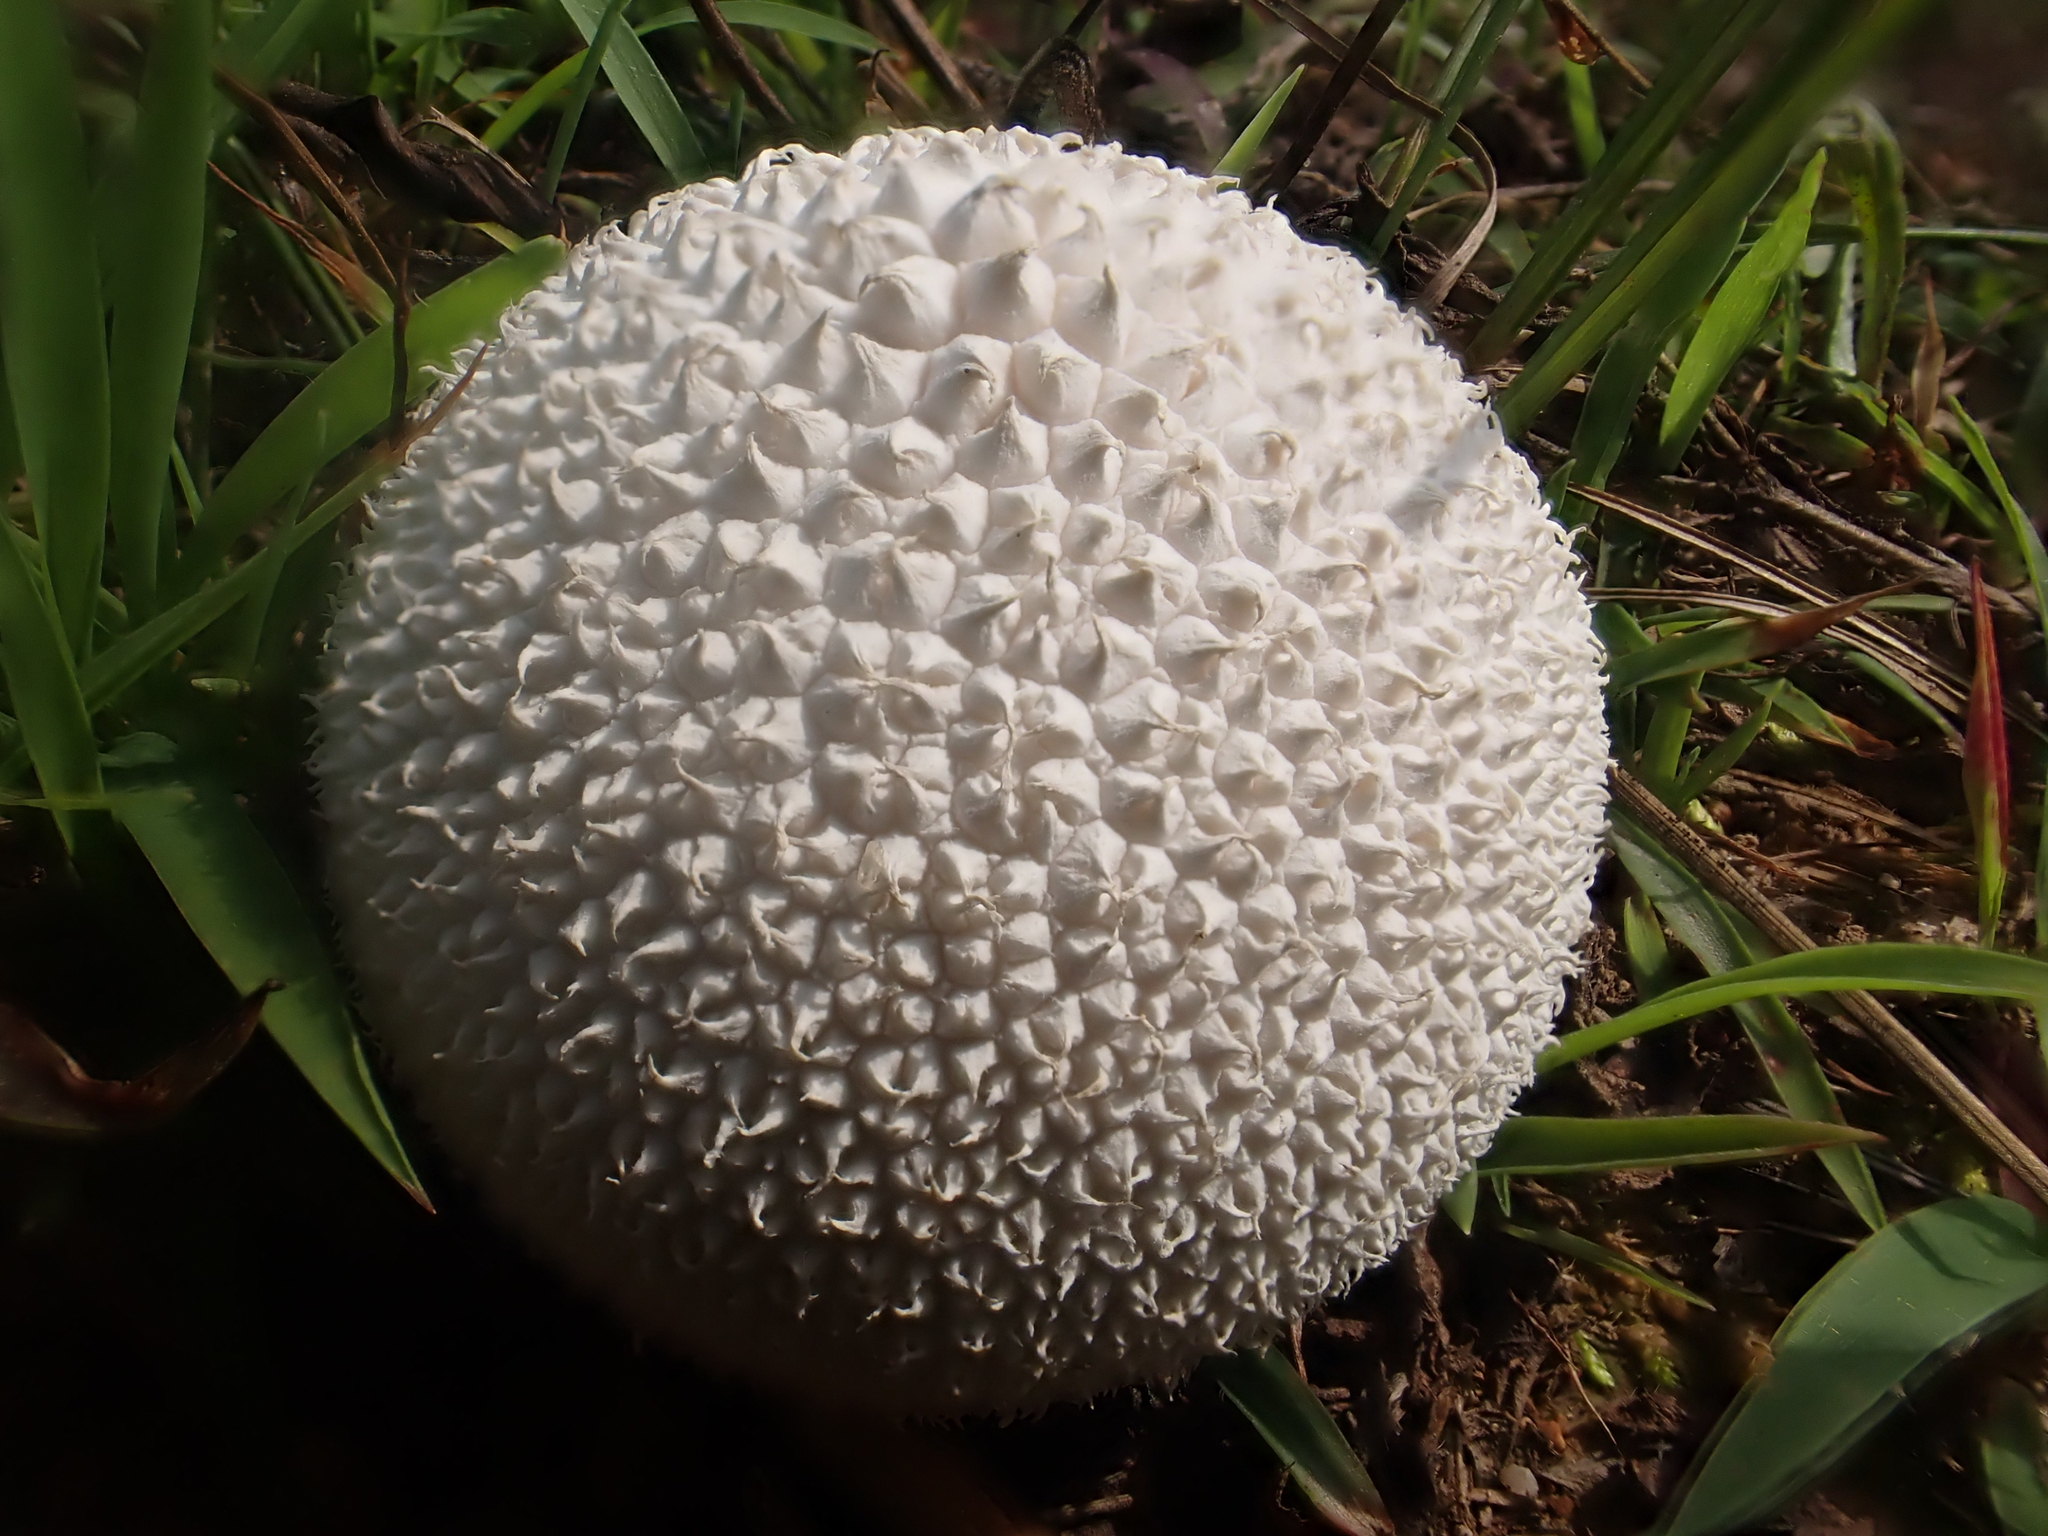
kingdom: Fungi
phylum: Basidiomycota
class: Agaricomycetes
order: Agaricales
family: Agaricaceae
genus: Lycoperdon
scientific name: Lycoperdon marginatum
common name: Peeling puffball
